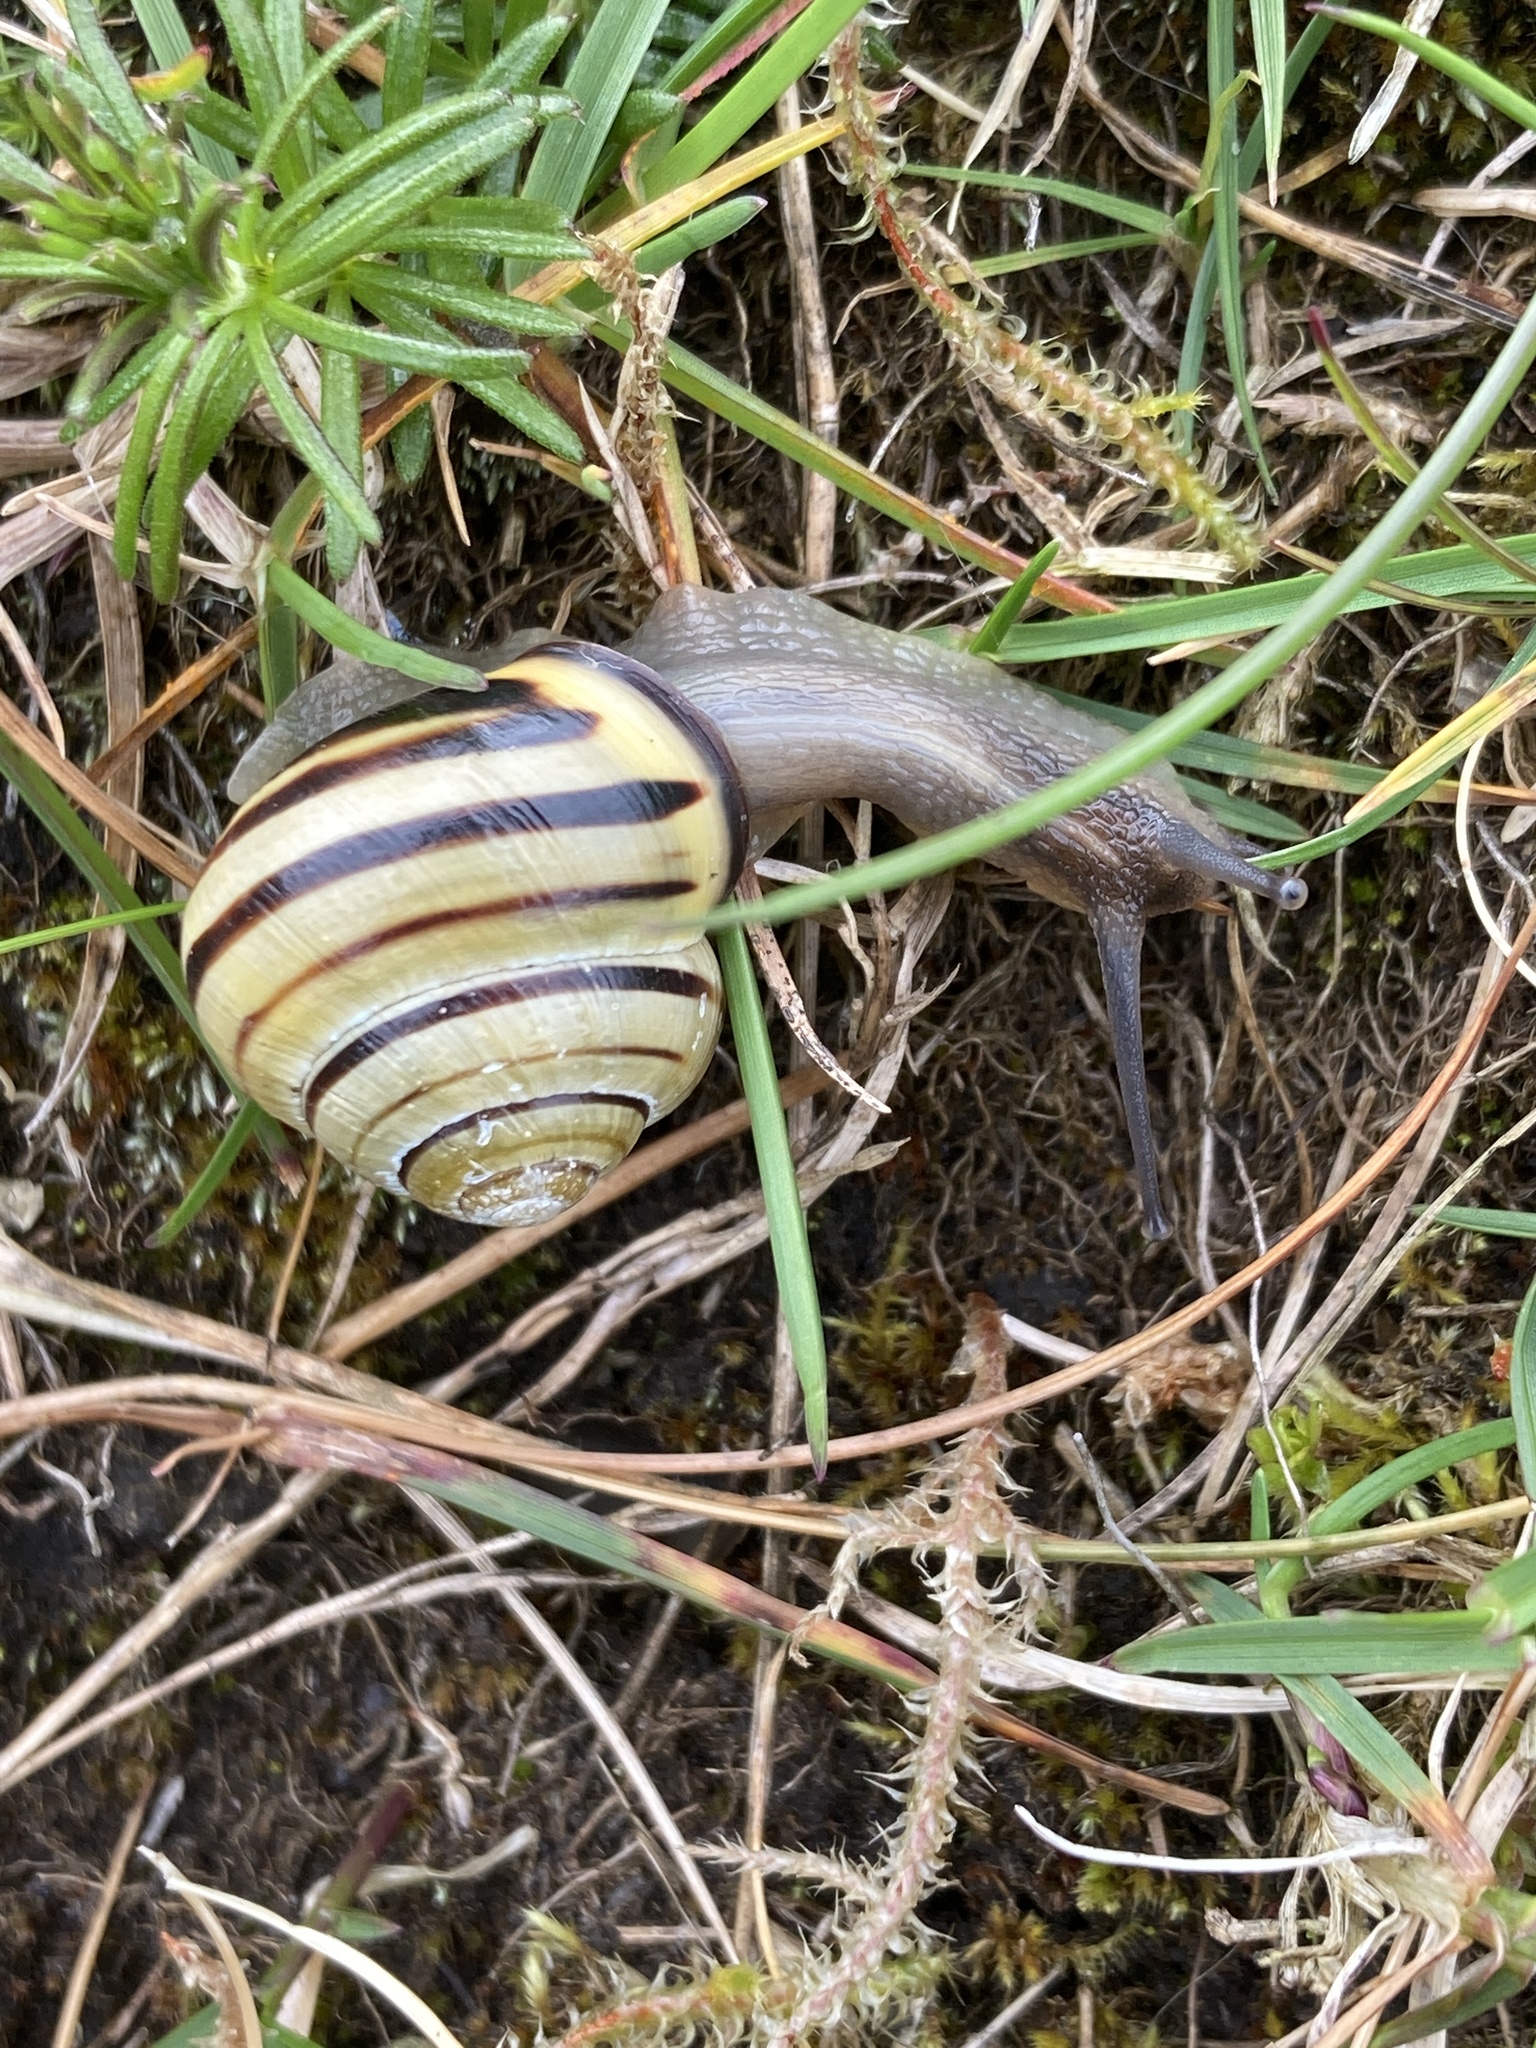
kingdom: Animalia
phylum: Mollusca
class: Gastropoda
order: Stylommatophora
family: Helicidae
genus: Cepaea
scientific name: Cepaea nemoralis
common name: Grovesnail
